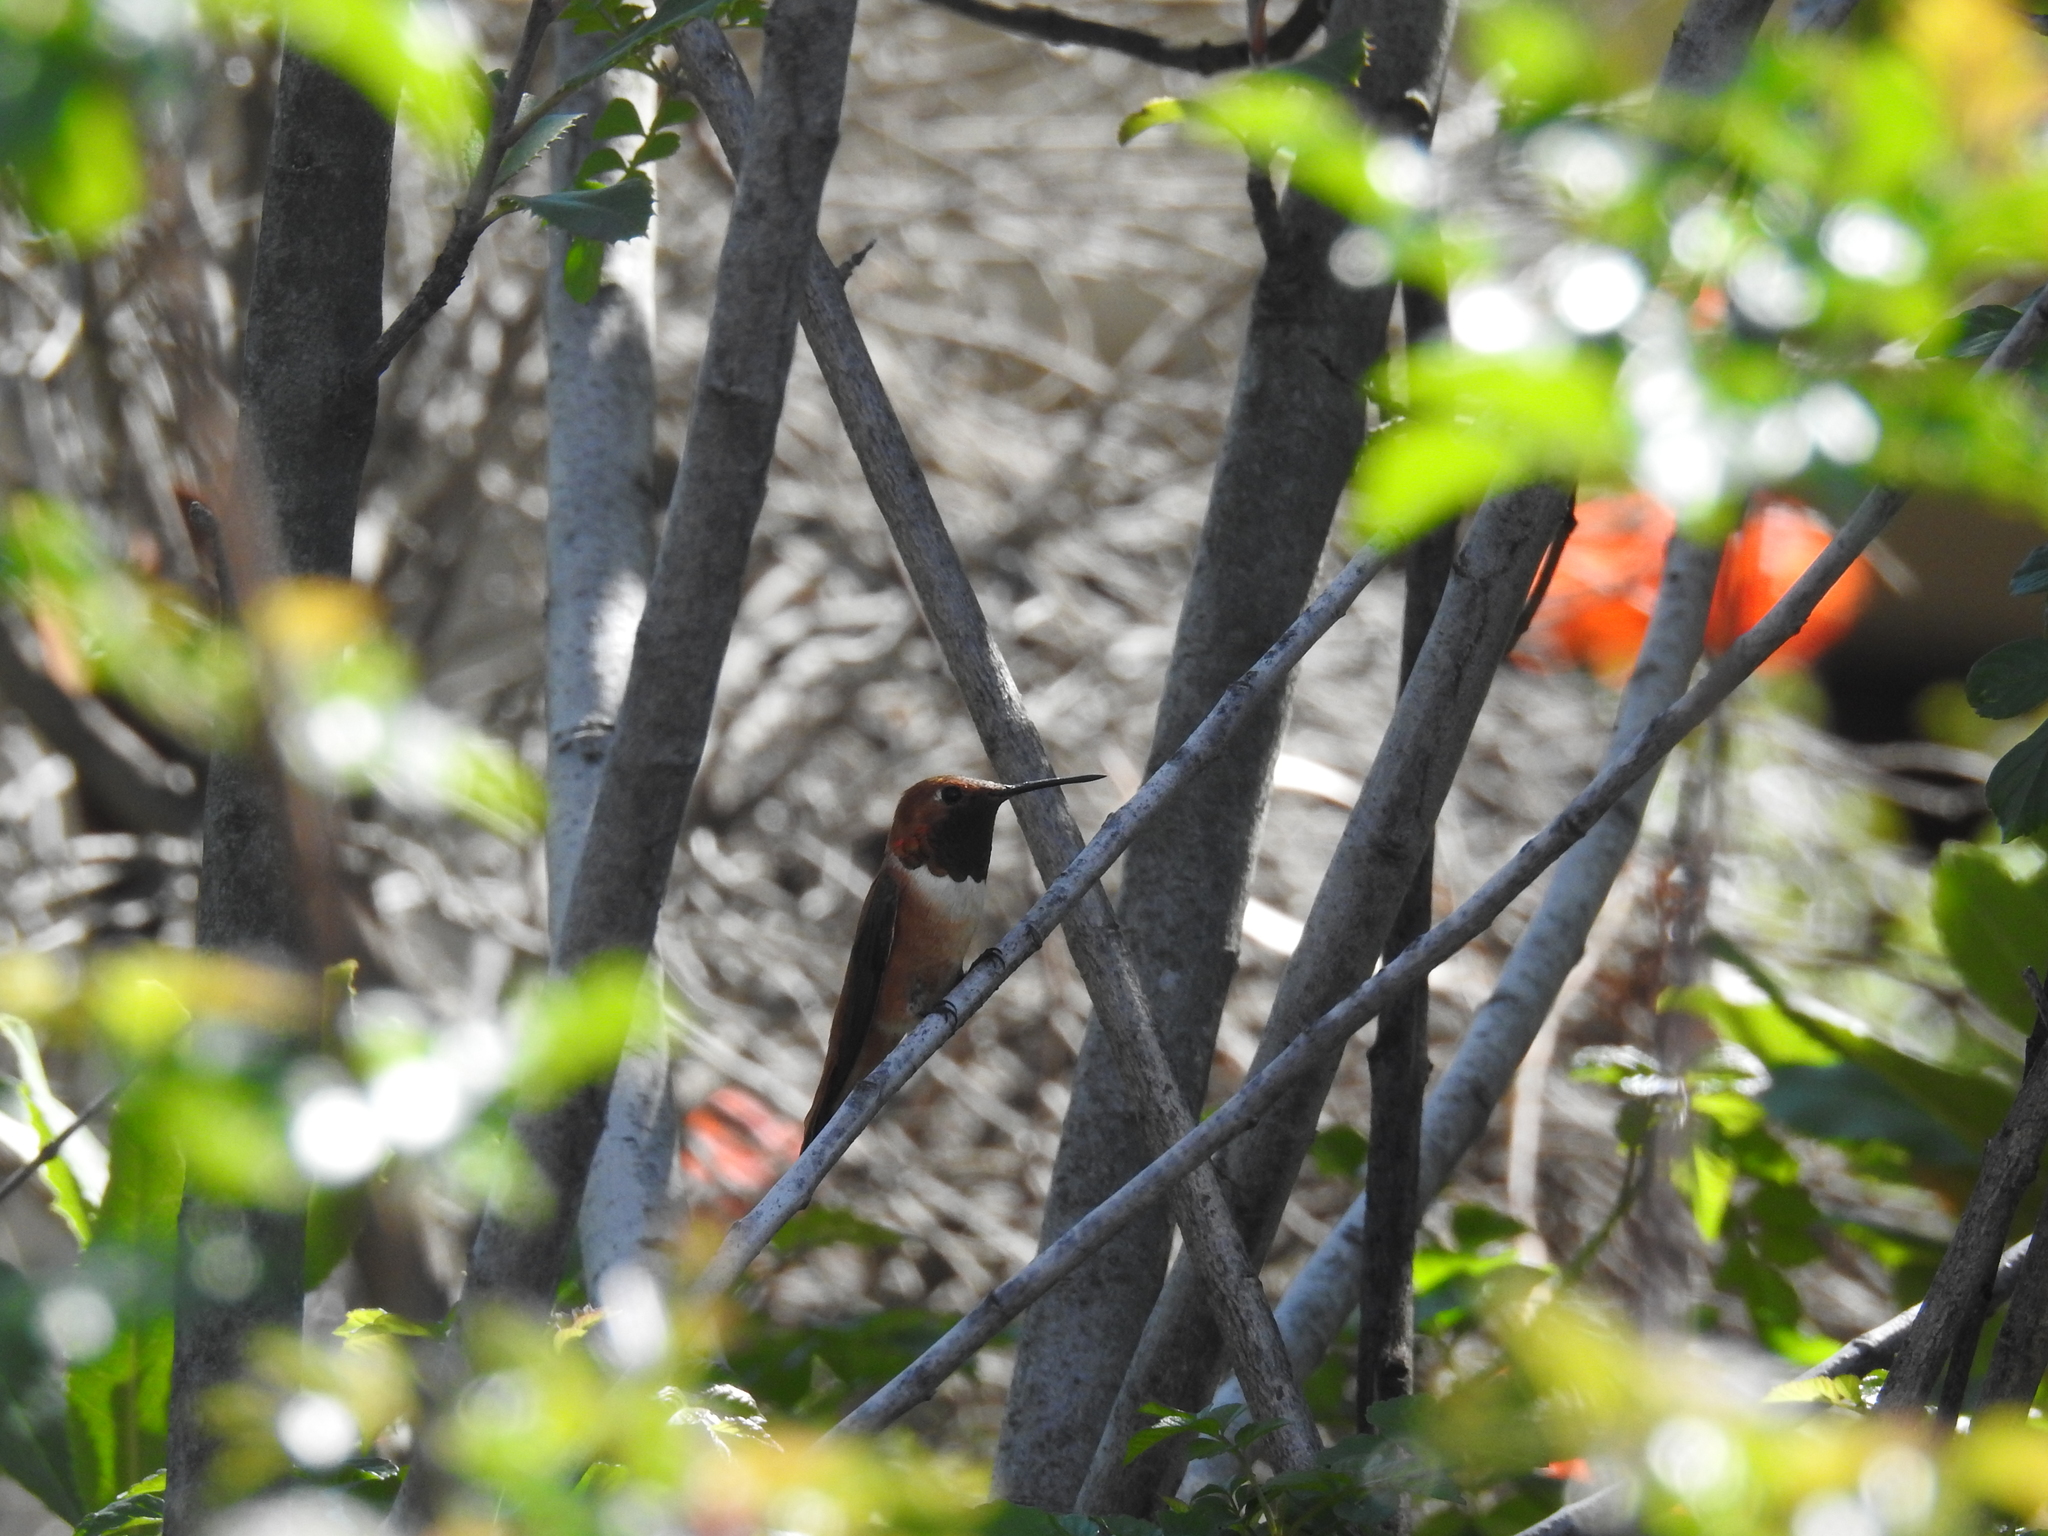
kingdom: Animalia
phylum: Chordata
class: Aves
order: Apodiformes
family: Trochilidae
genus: Selasphorus
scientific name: Selasphorus rufus
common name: Rufous hummingbird
